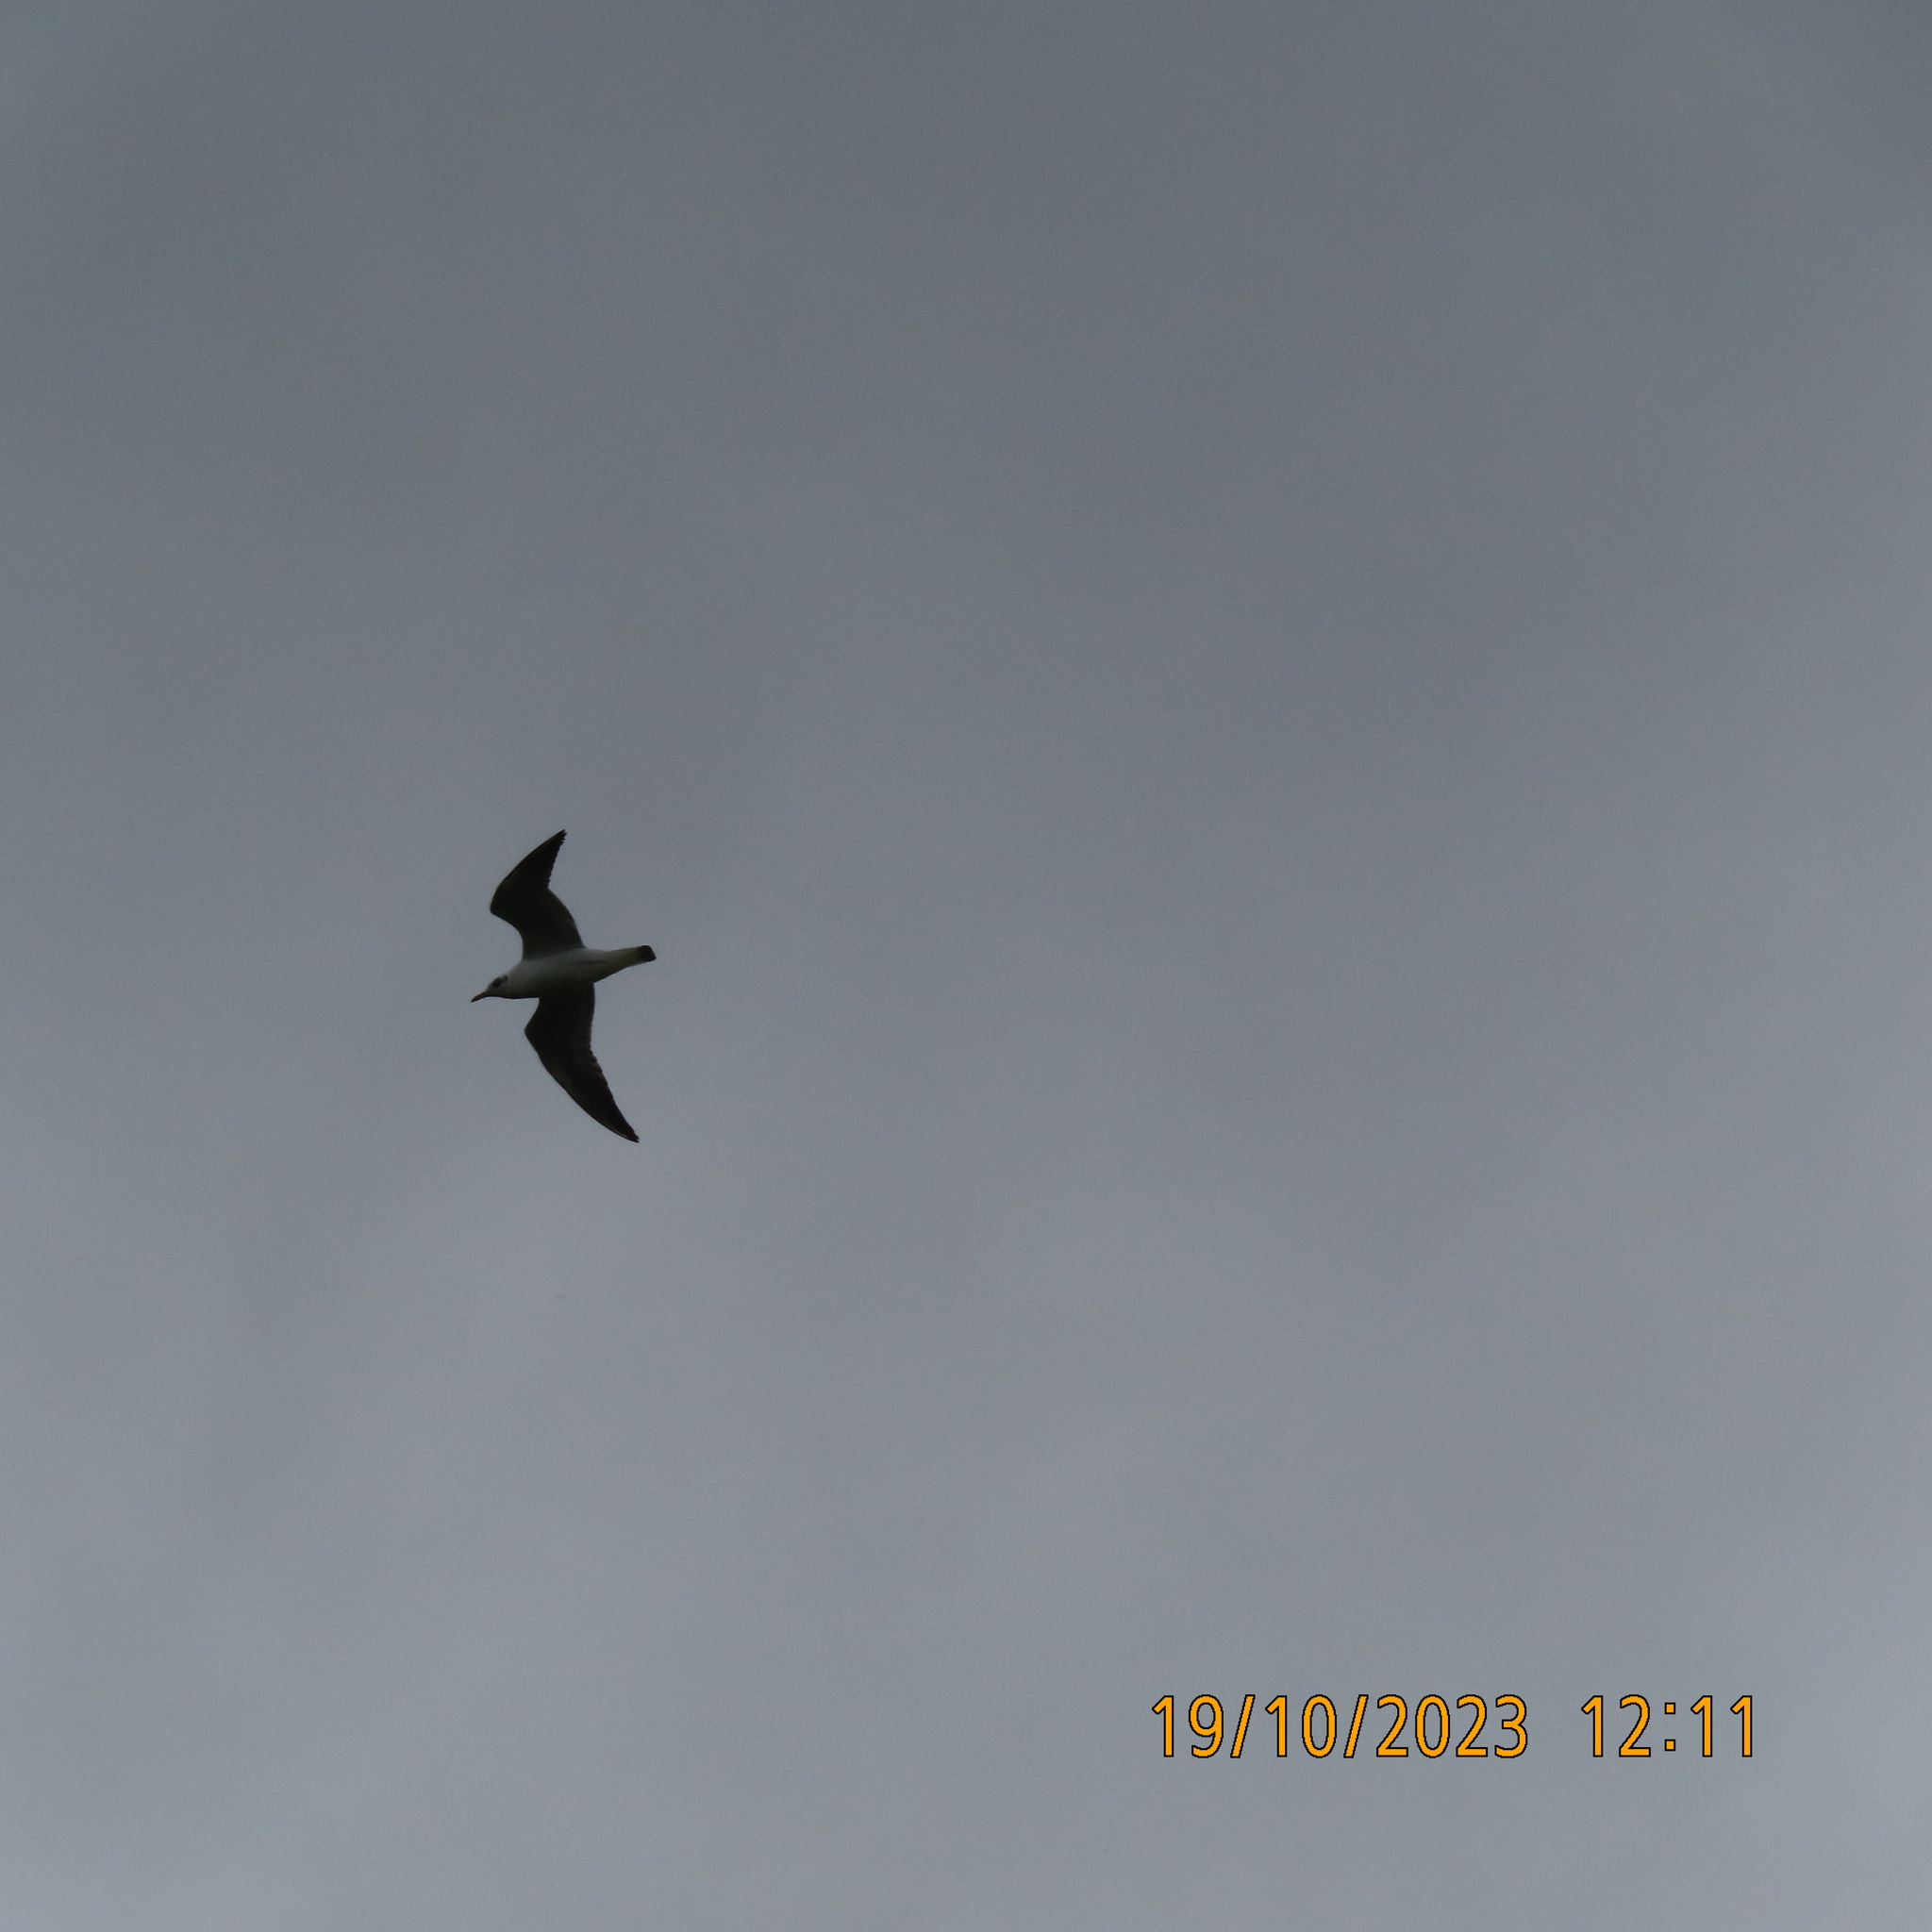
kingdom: Animalia
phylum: Chordata
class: Aves
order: Charadriiformes
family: Laridae
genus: Chroicocephalus
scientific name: Chroicocephalus ridibundus
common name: Black-headed gull
